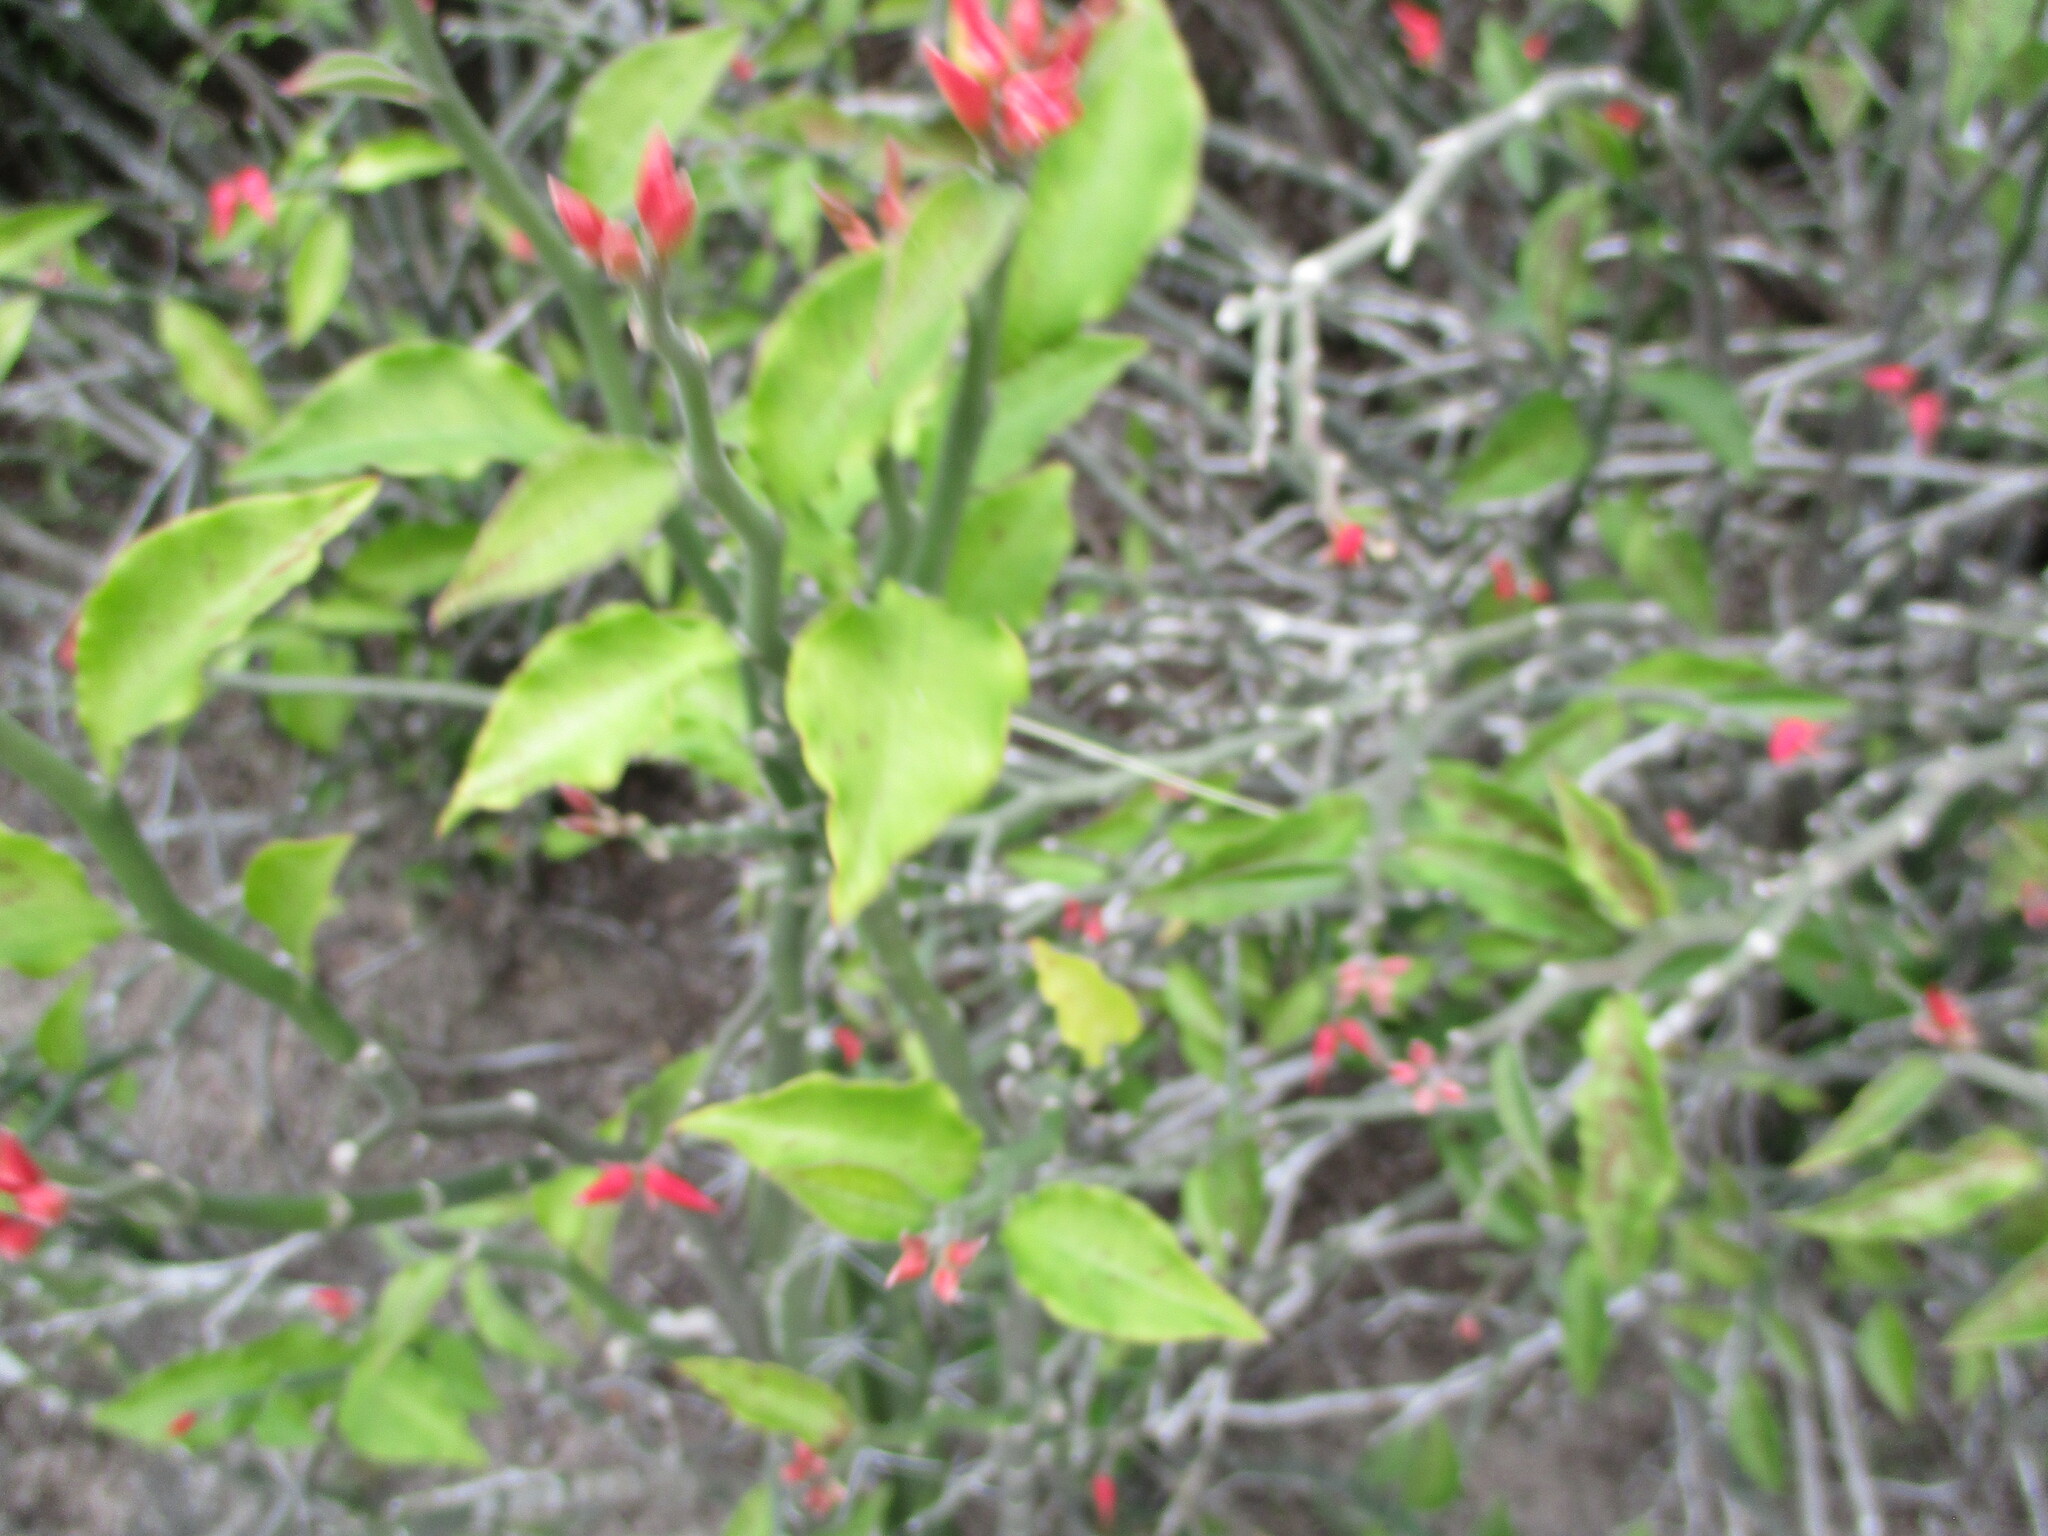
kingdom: Plantae
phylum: Tracheophyta
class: Magnoliopsida
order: Malpighiales
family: Euphorbiaceae
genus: Euphorbia
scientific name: Euphorbia tithymaloides
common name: Slipperplant
